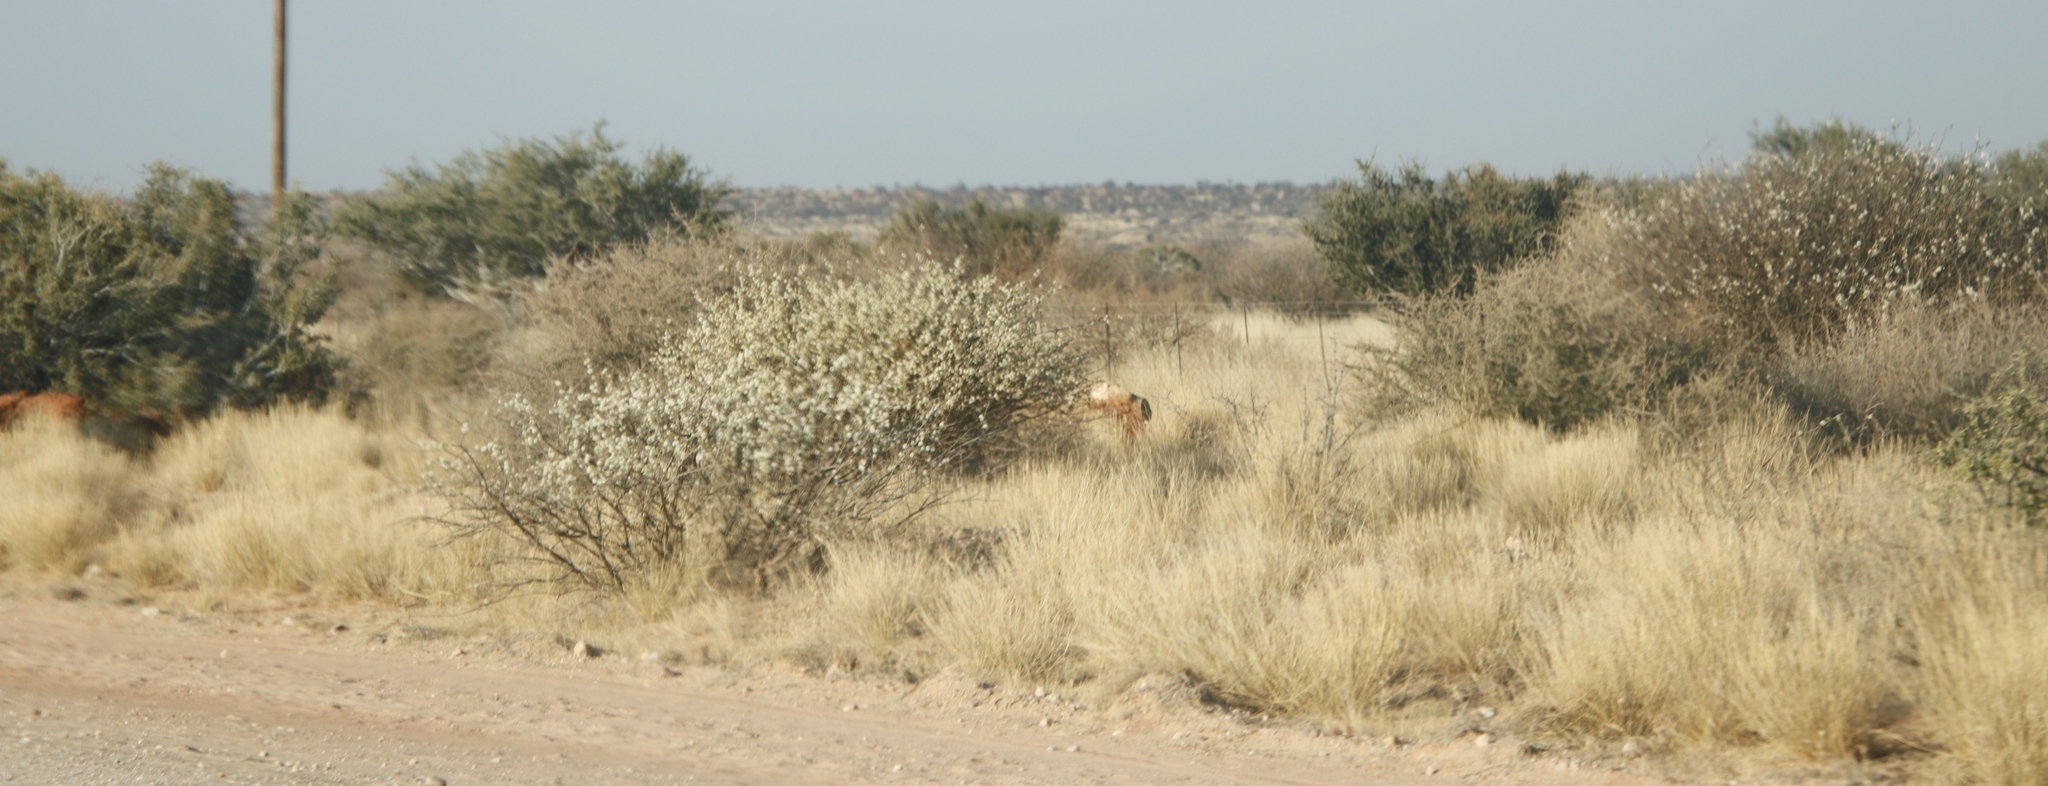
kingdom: Plantae
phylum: Tracheophyta
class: Magnoliopsida
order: Fabales
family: Fabaceae
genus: Senegalia
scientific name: Senegalia mellifera
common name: Hookthorn
